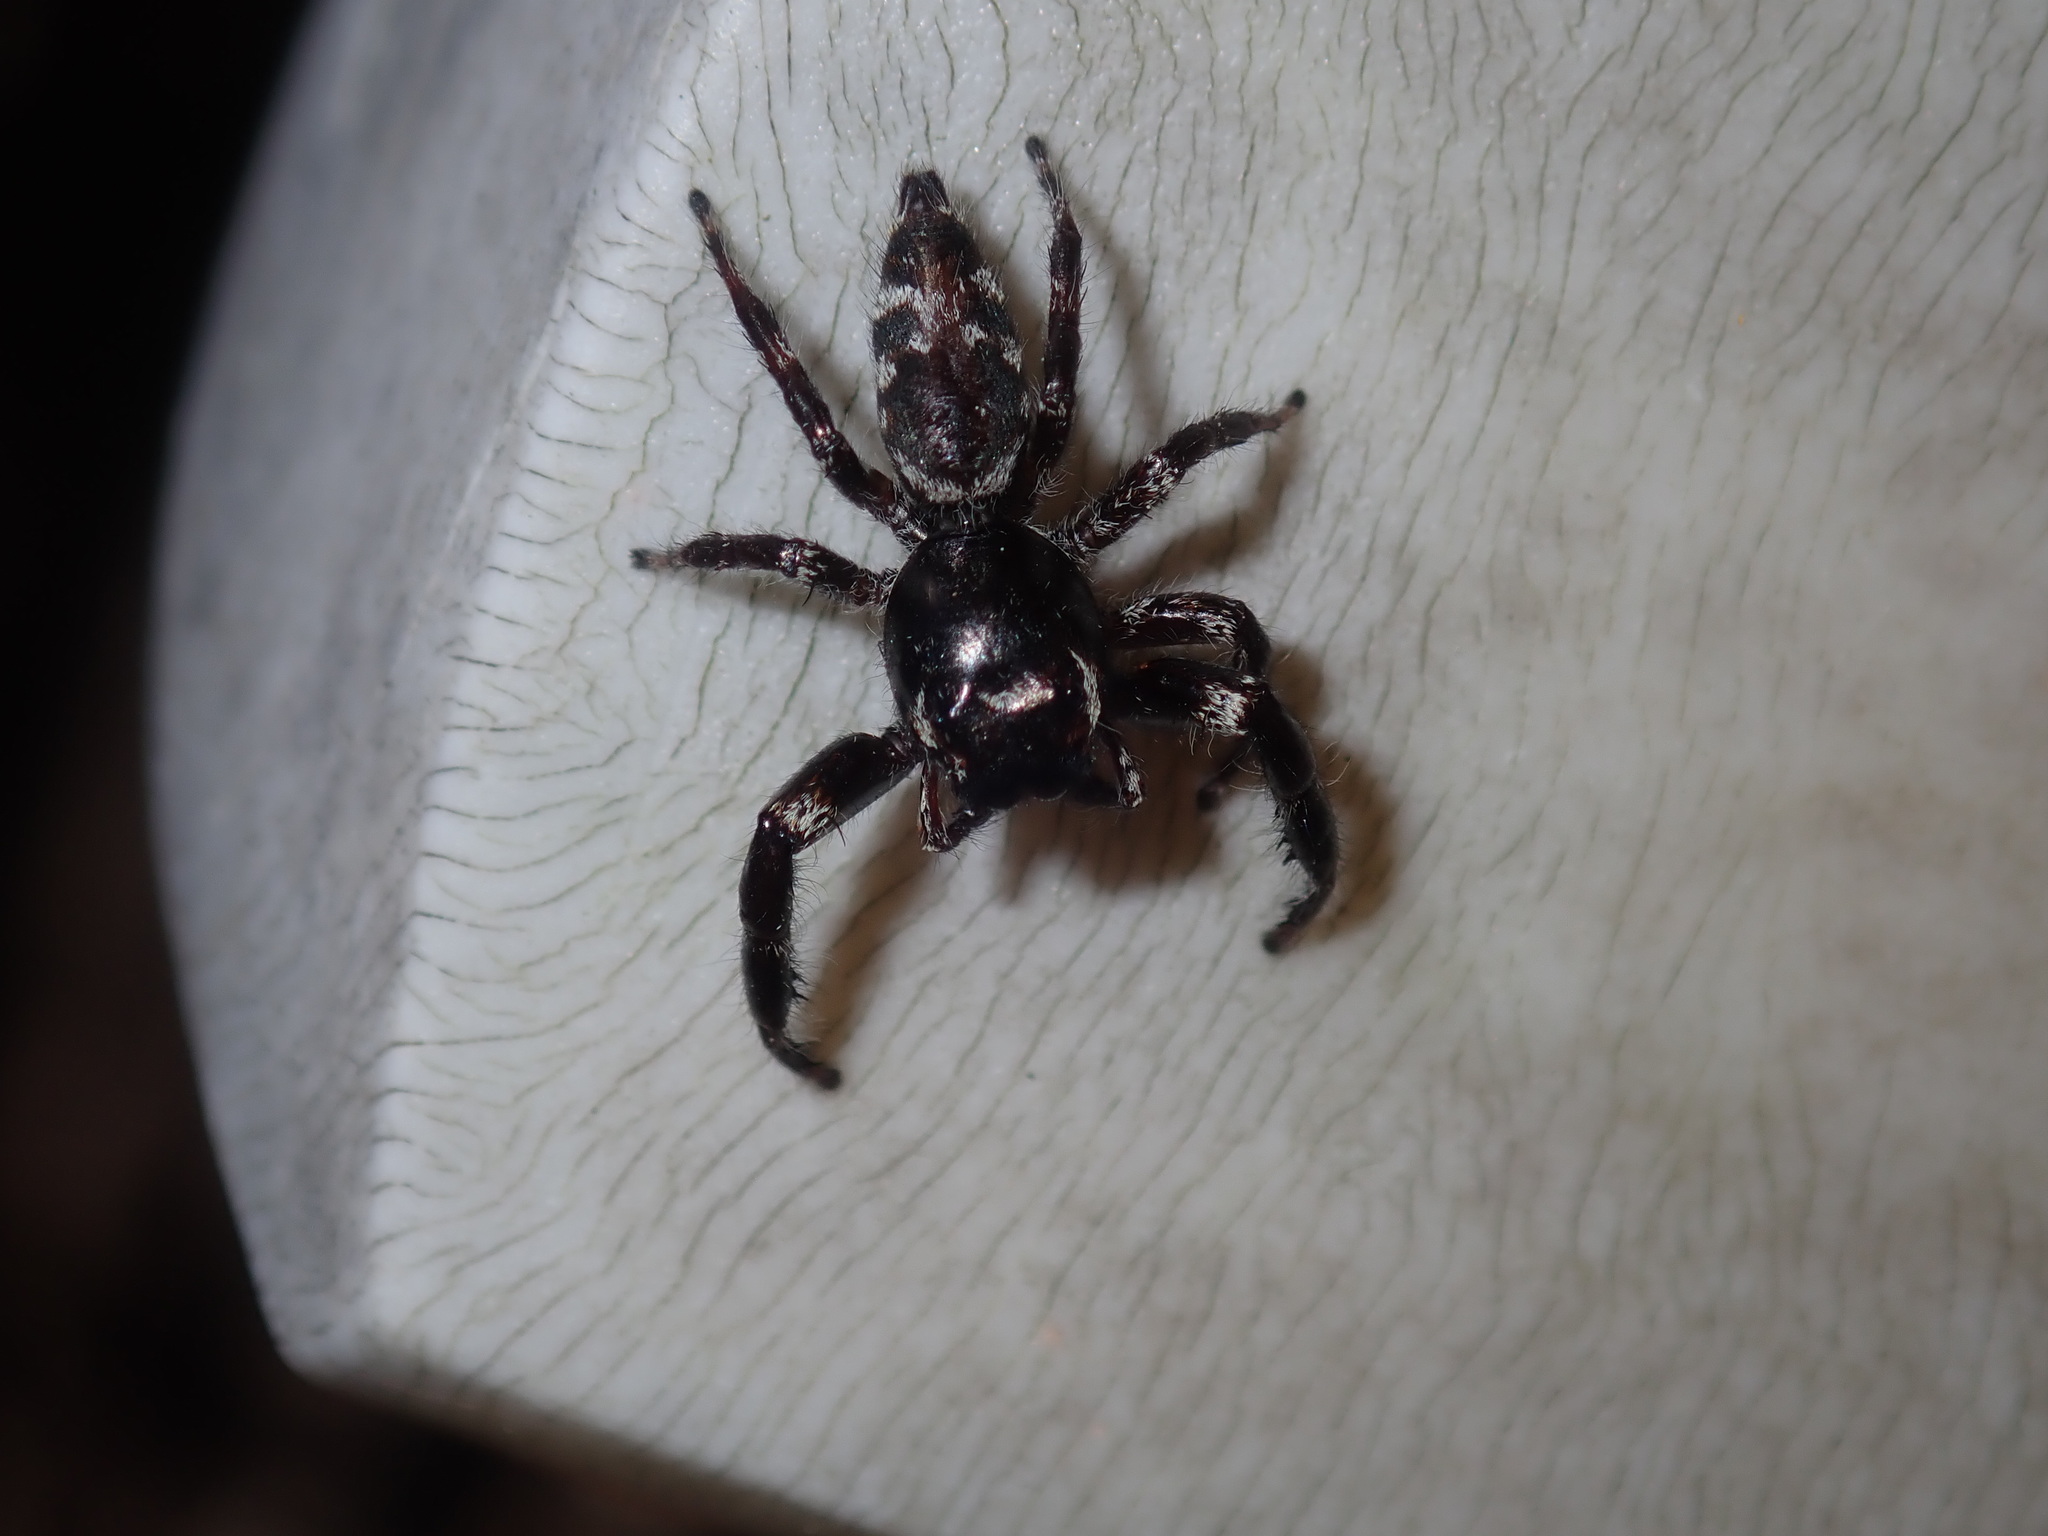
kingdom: Animalia
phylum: Arthropoda
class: Arachnida
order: Araneae
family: Salticidae
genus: Sandalodes
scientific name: Sandalodes superbus
